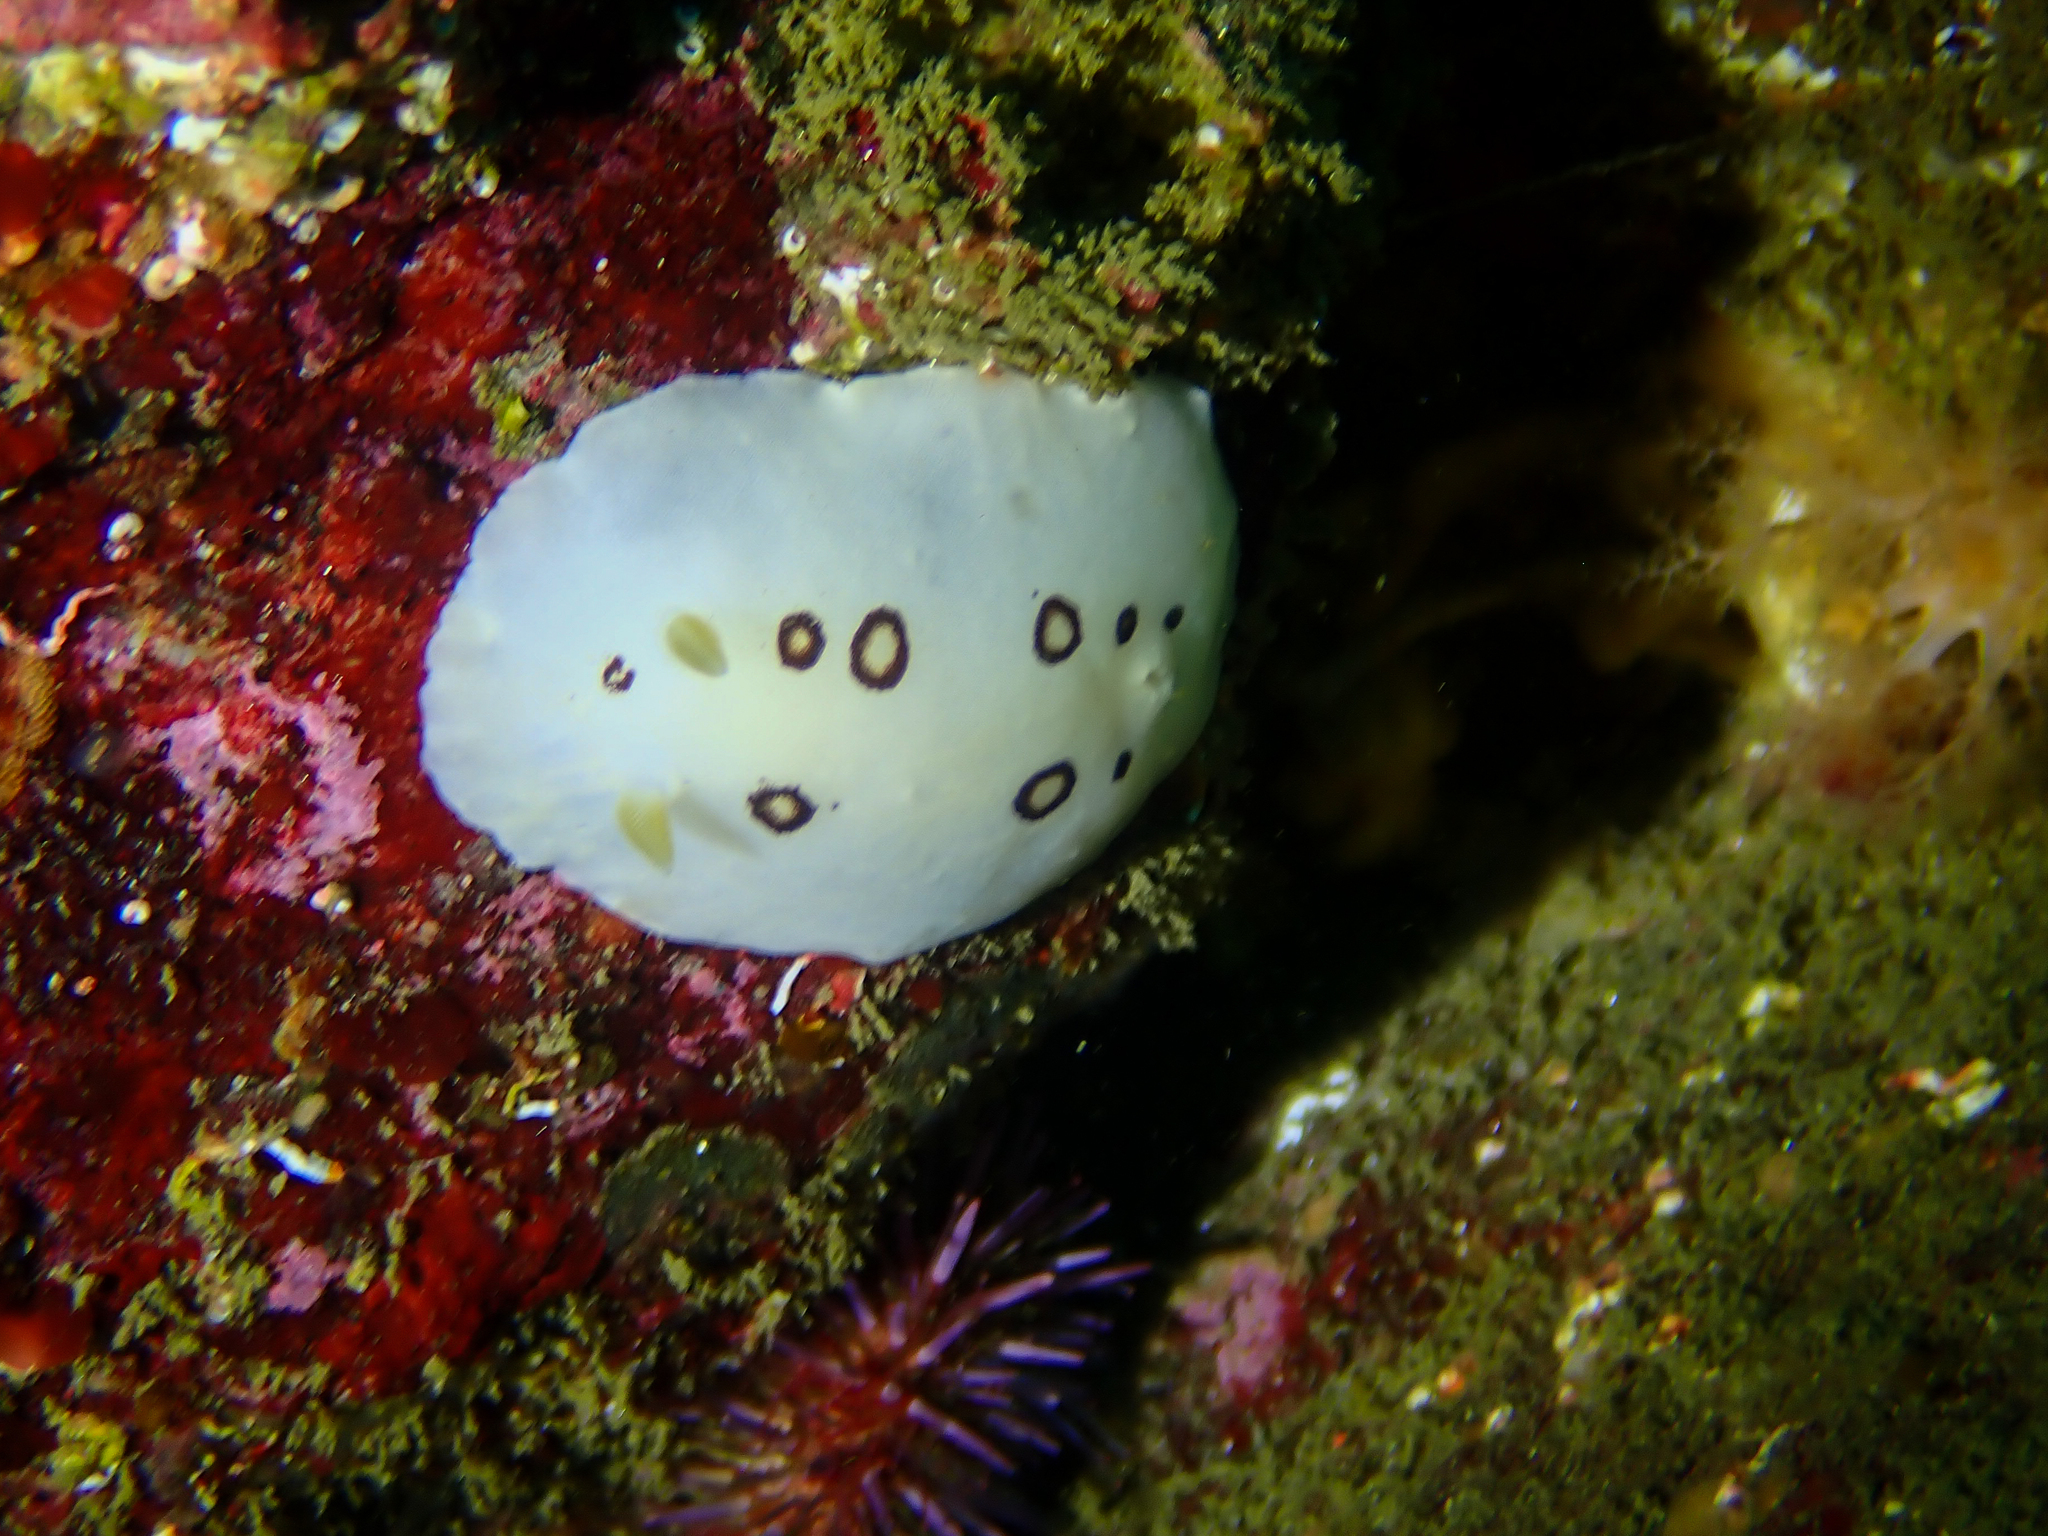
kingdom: Animalia
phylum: Mollusca
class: Gastropoda
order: Nudibranchia
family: Discodorididae
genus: Diaulula
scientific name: Diaulula sandiegensis
